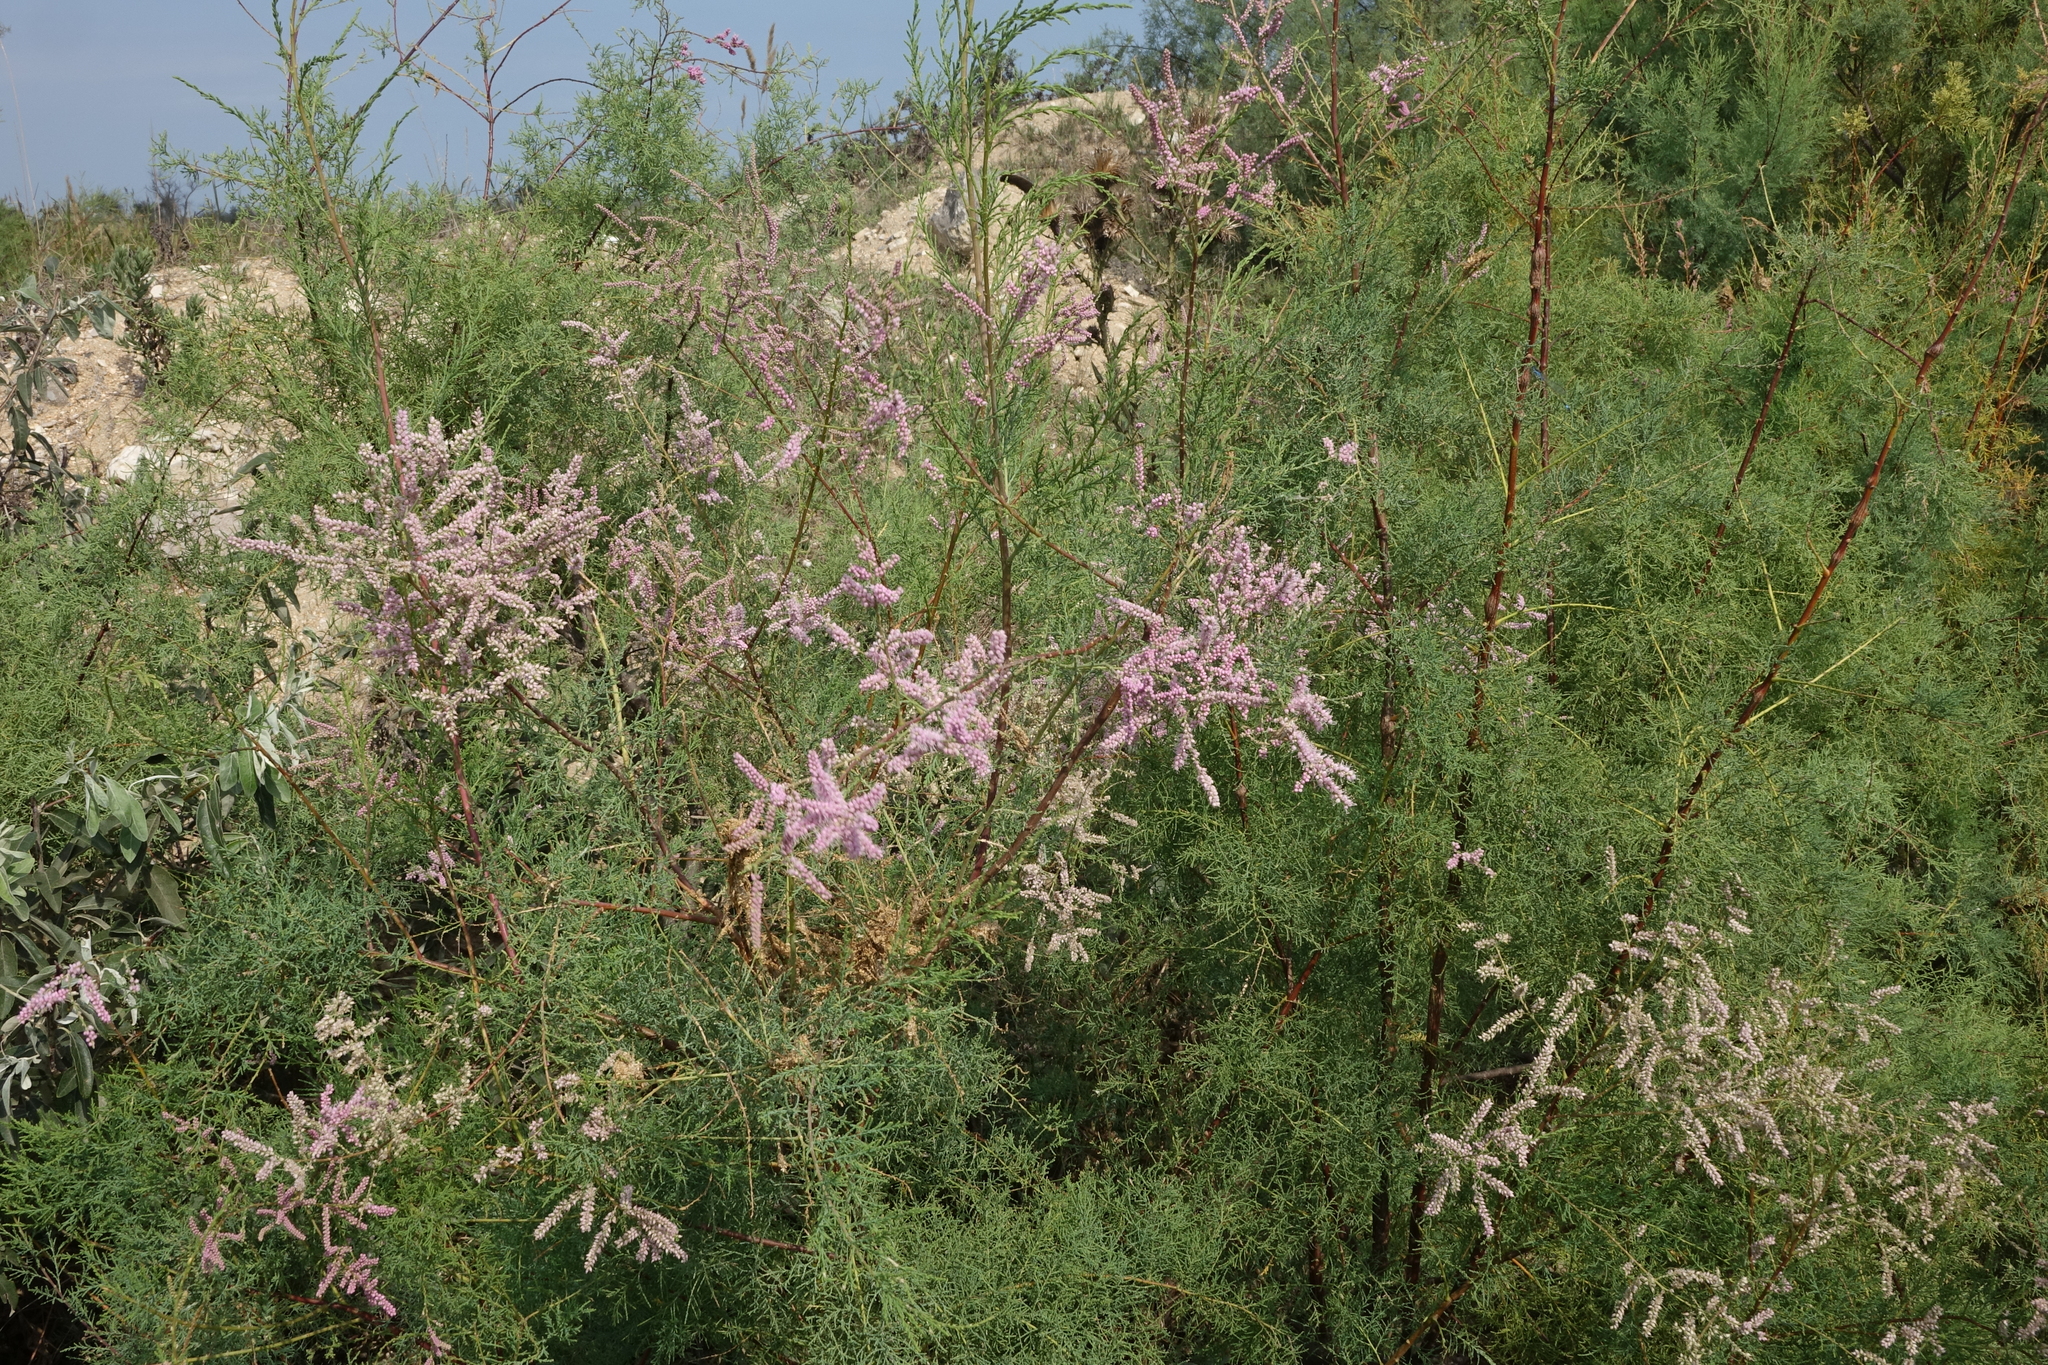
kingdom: Plantae
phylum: Tracheophyta
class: Magnoliopsida
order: Caryophyllales
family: Tamaricaceae
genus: Tamarix
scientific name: Tamarix ramosissima
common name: Pink tamarisk
